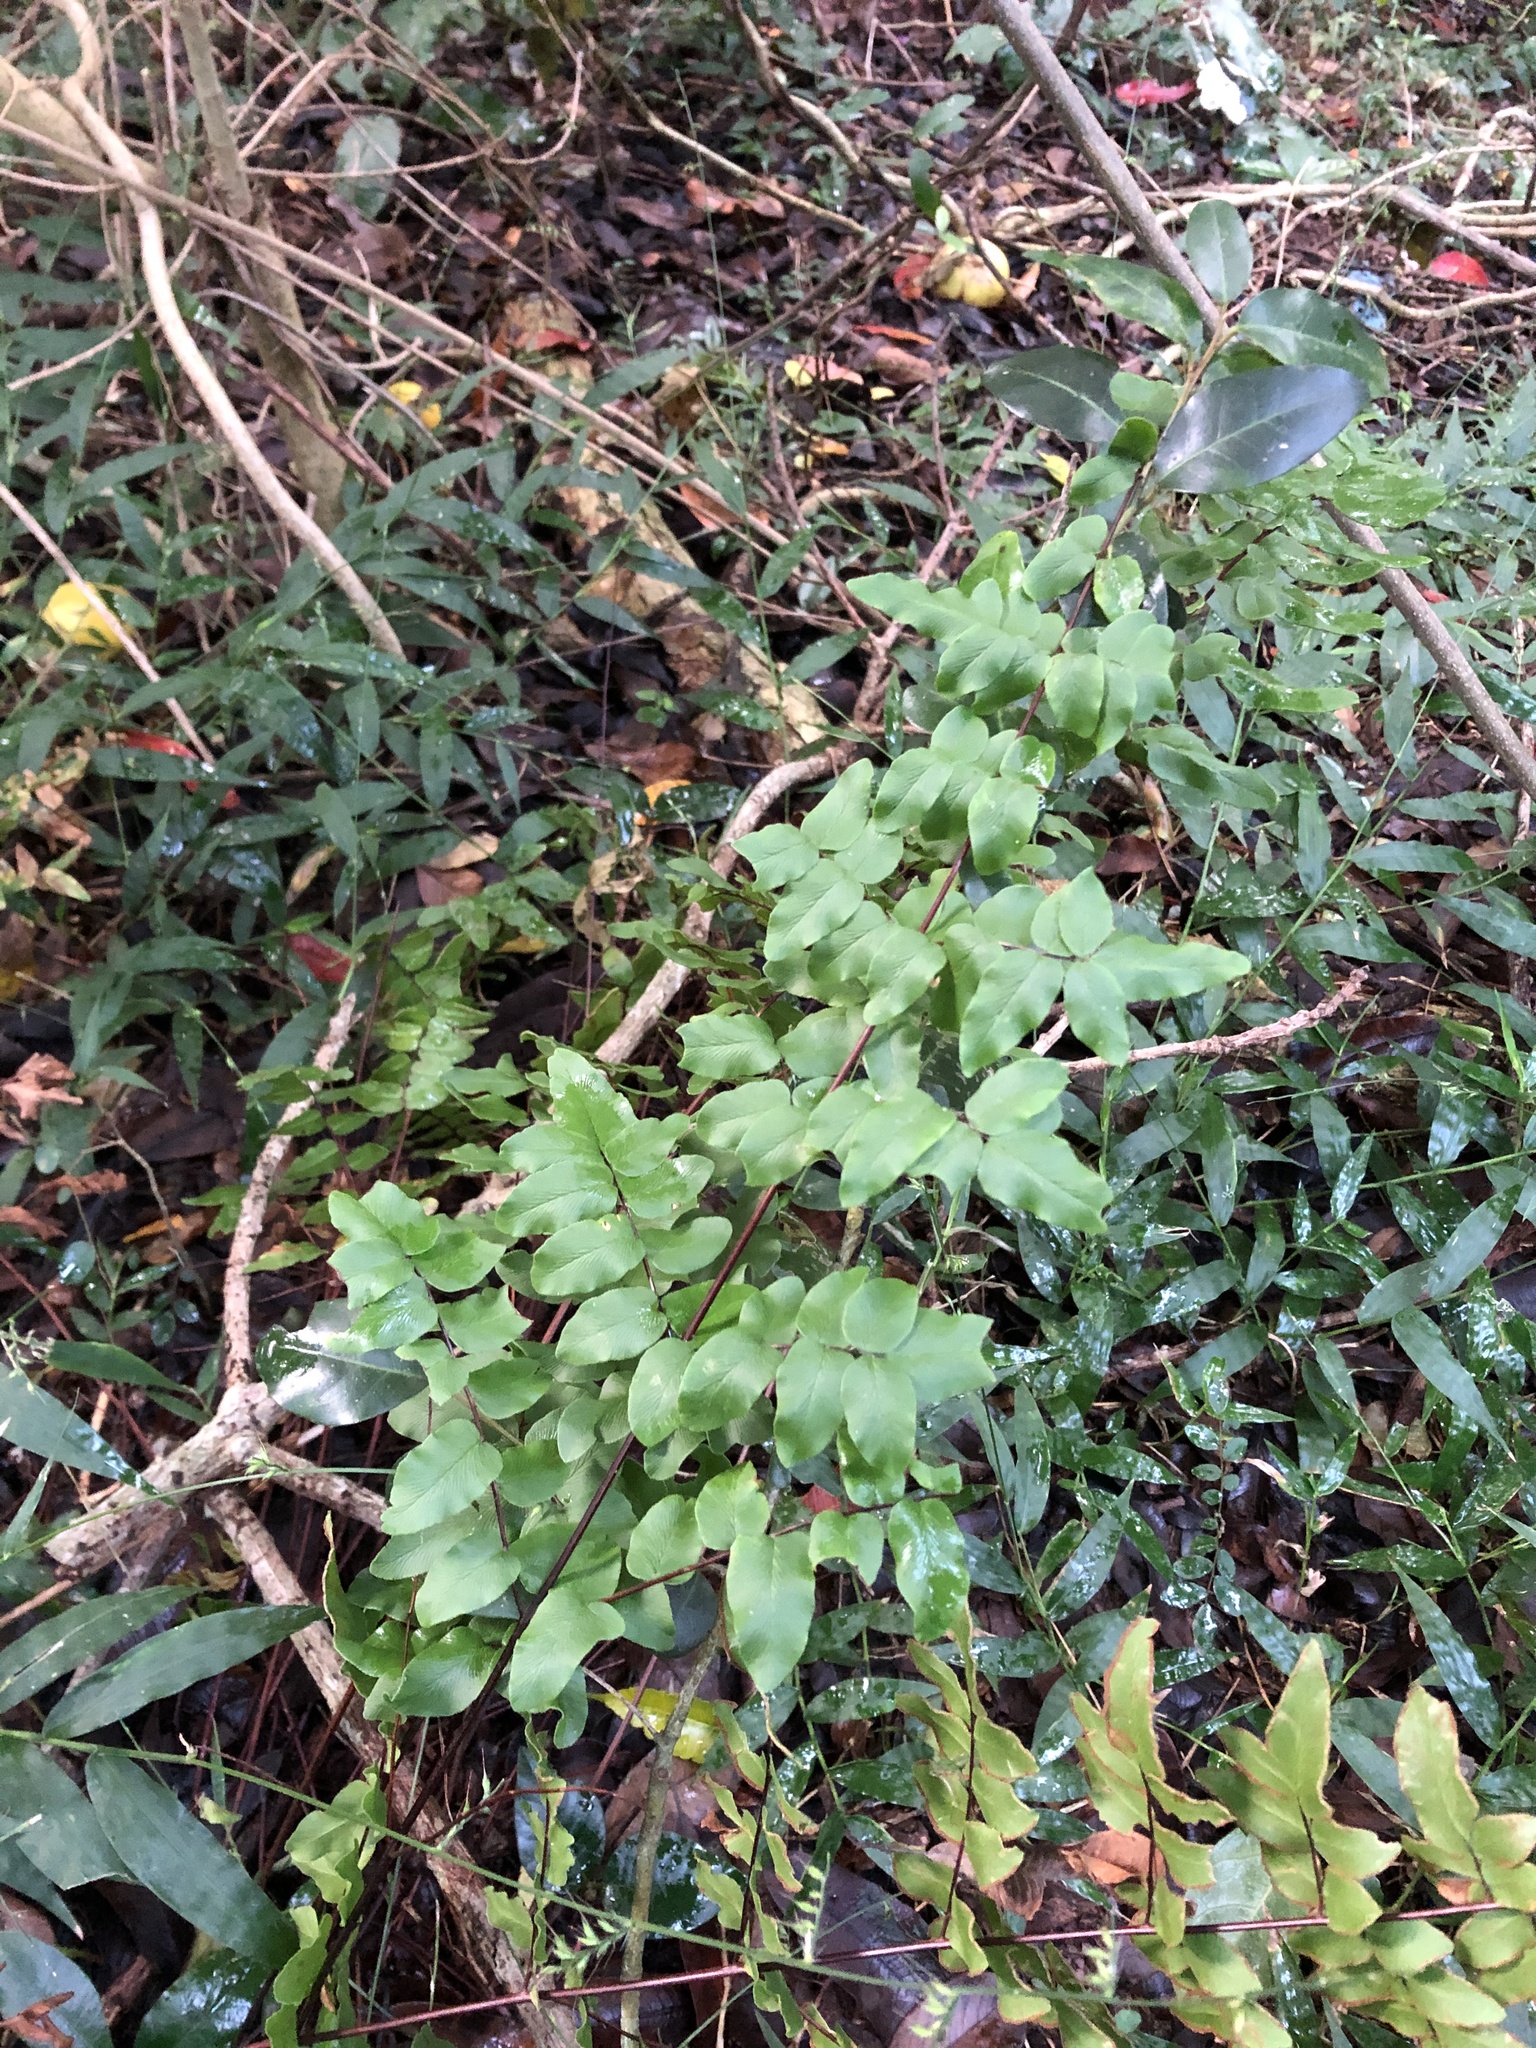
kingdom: Plantae
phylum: Tracheophyta
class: Polypodiopsida
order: Polypodiales
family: Pteridaceae
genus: Cheilanthes
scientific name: Cheilanthes viridis
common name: Green cliffbrake
